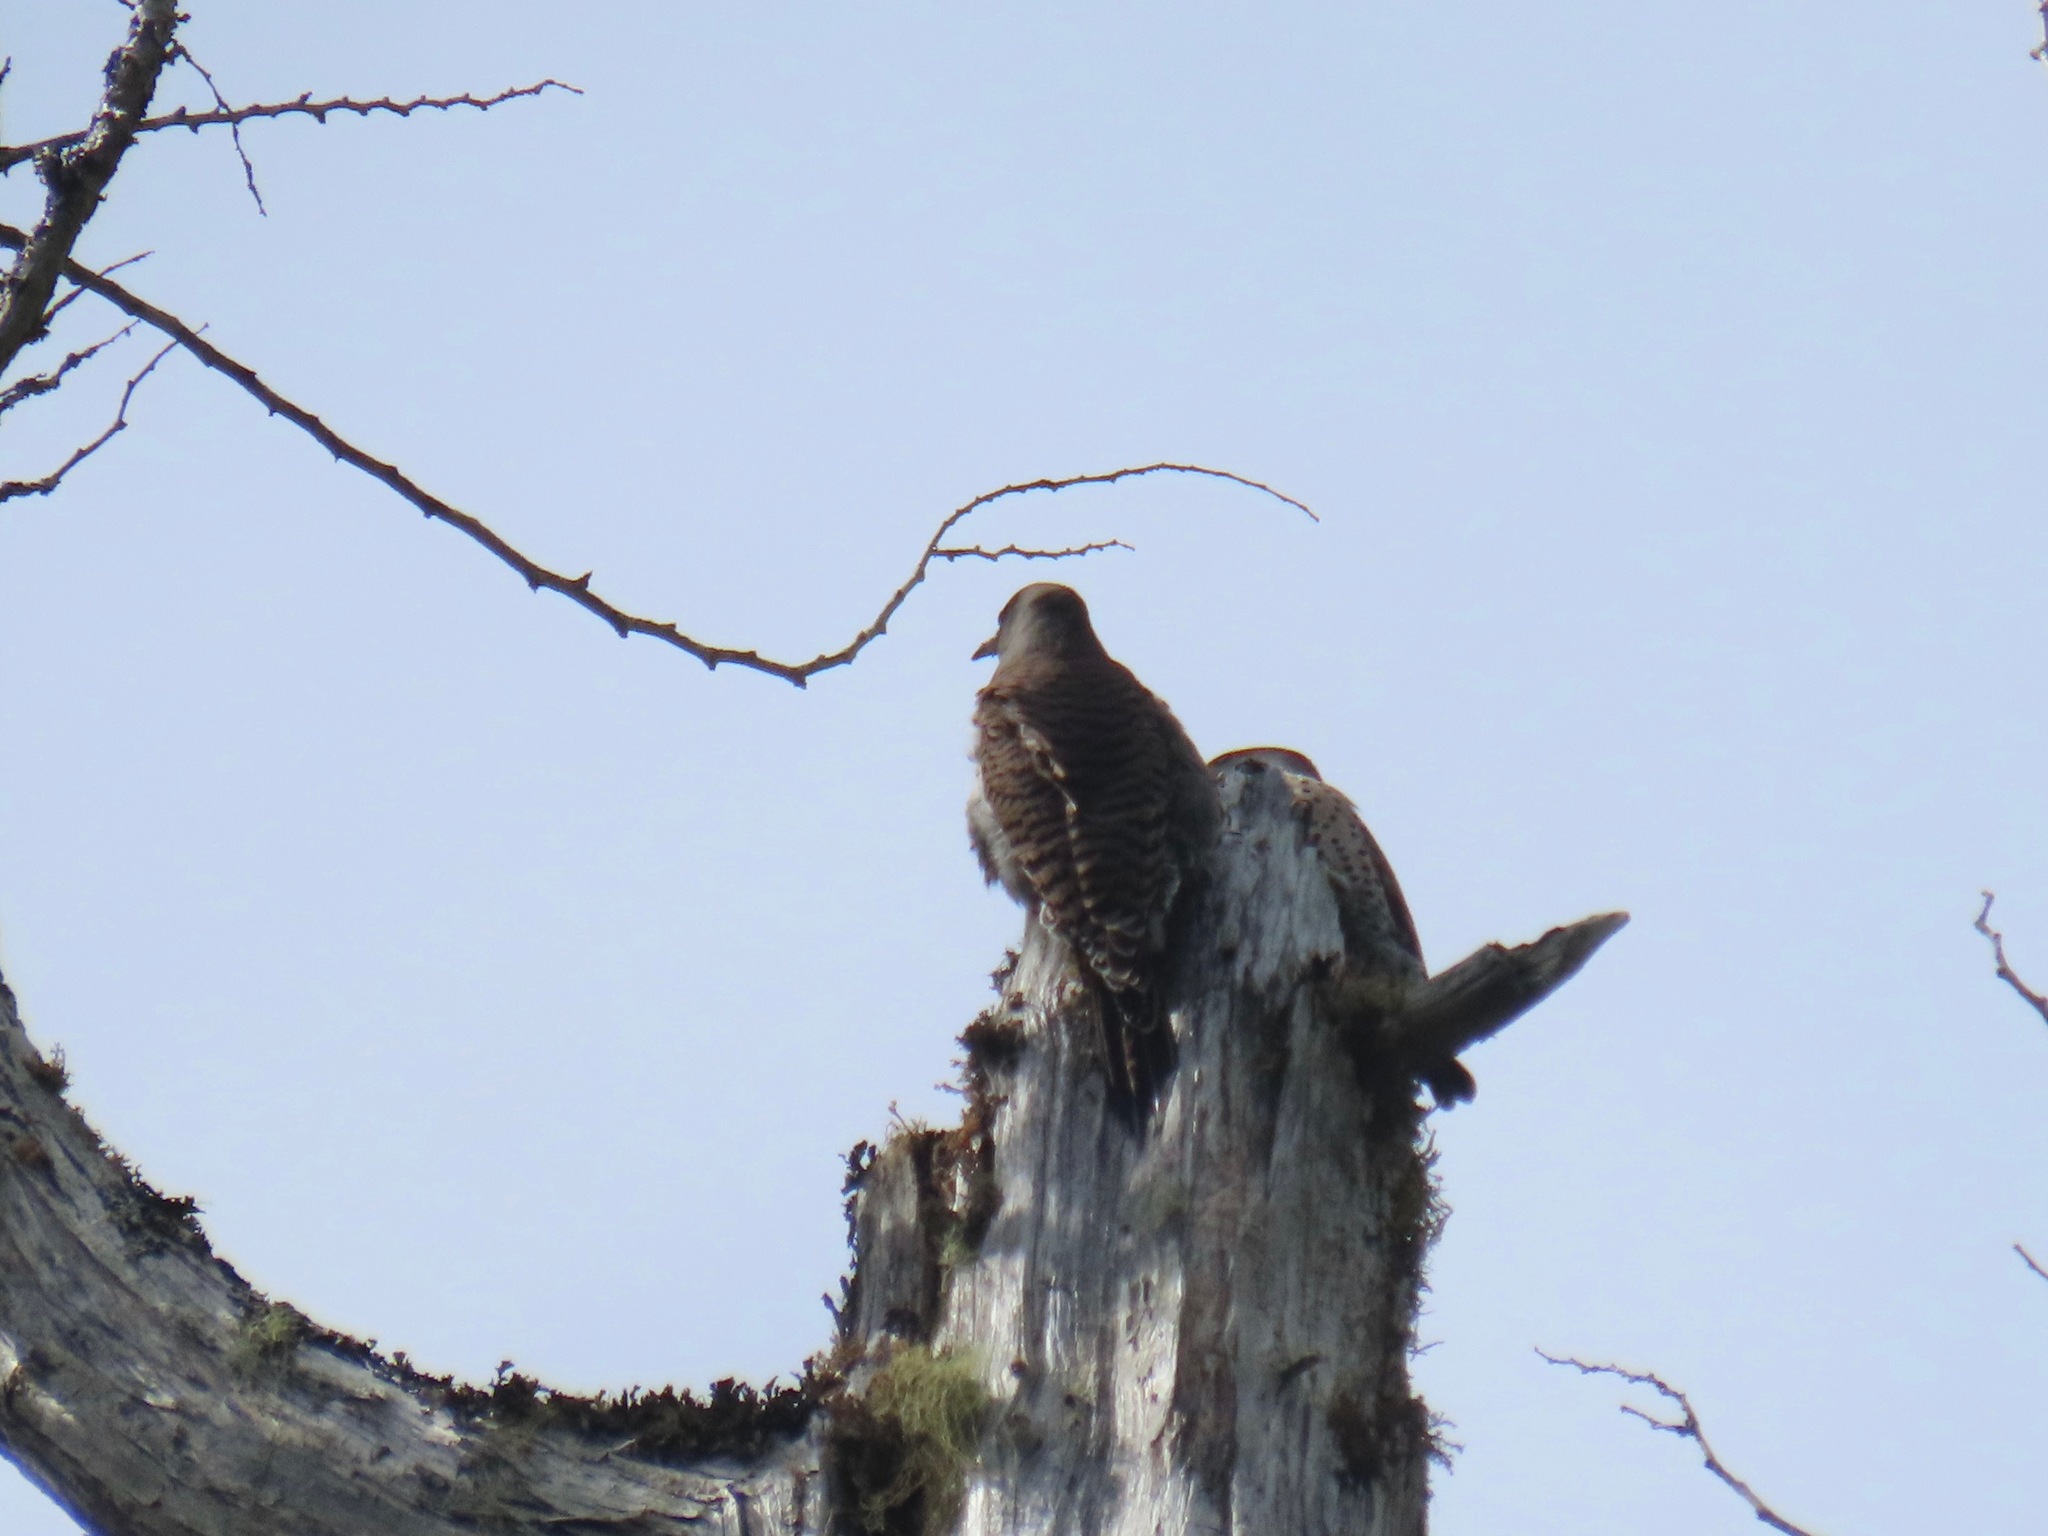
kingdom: Animalia
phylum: Chordata
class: Aves
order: Piciformes
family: Picidae
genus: Colaptes
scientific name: Colaptes auratus
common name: Northern flicker
